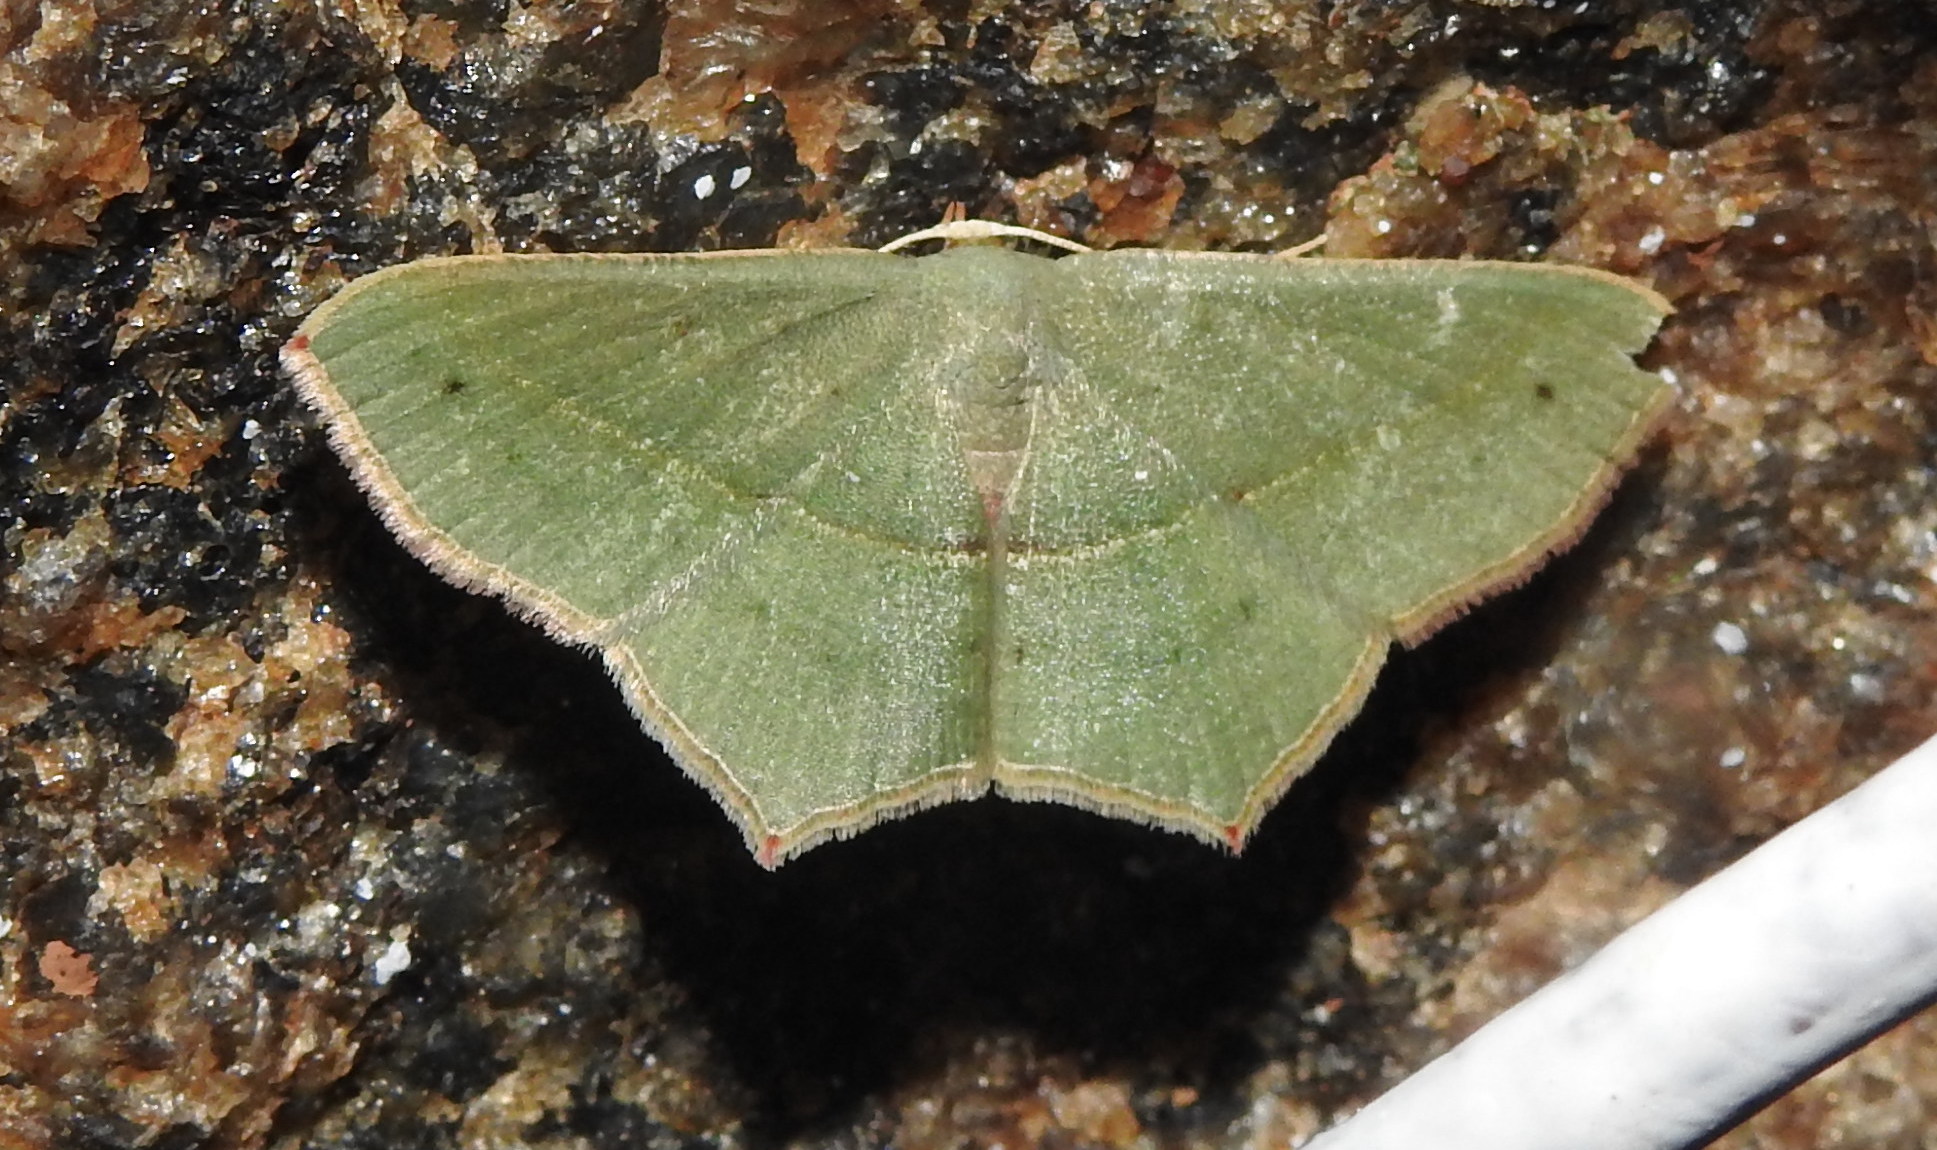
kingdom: Animalia
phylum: Arthropoda
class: Insecta
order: Lepidoptera
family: Geometridae
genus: Traminda
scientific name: Traminda mundissima
